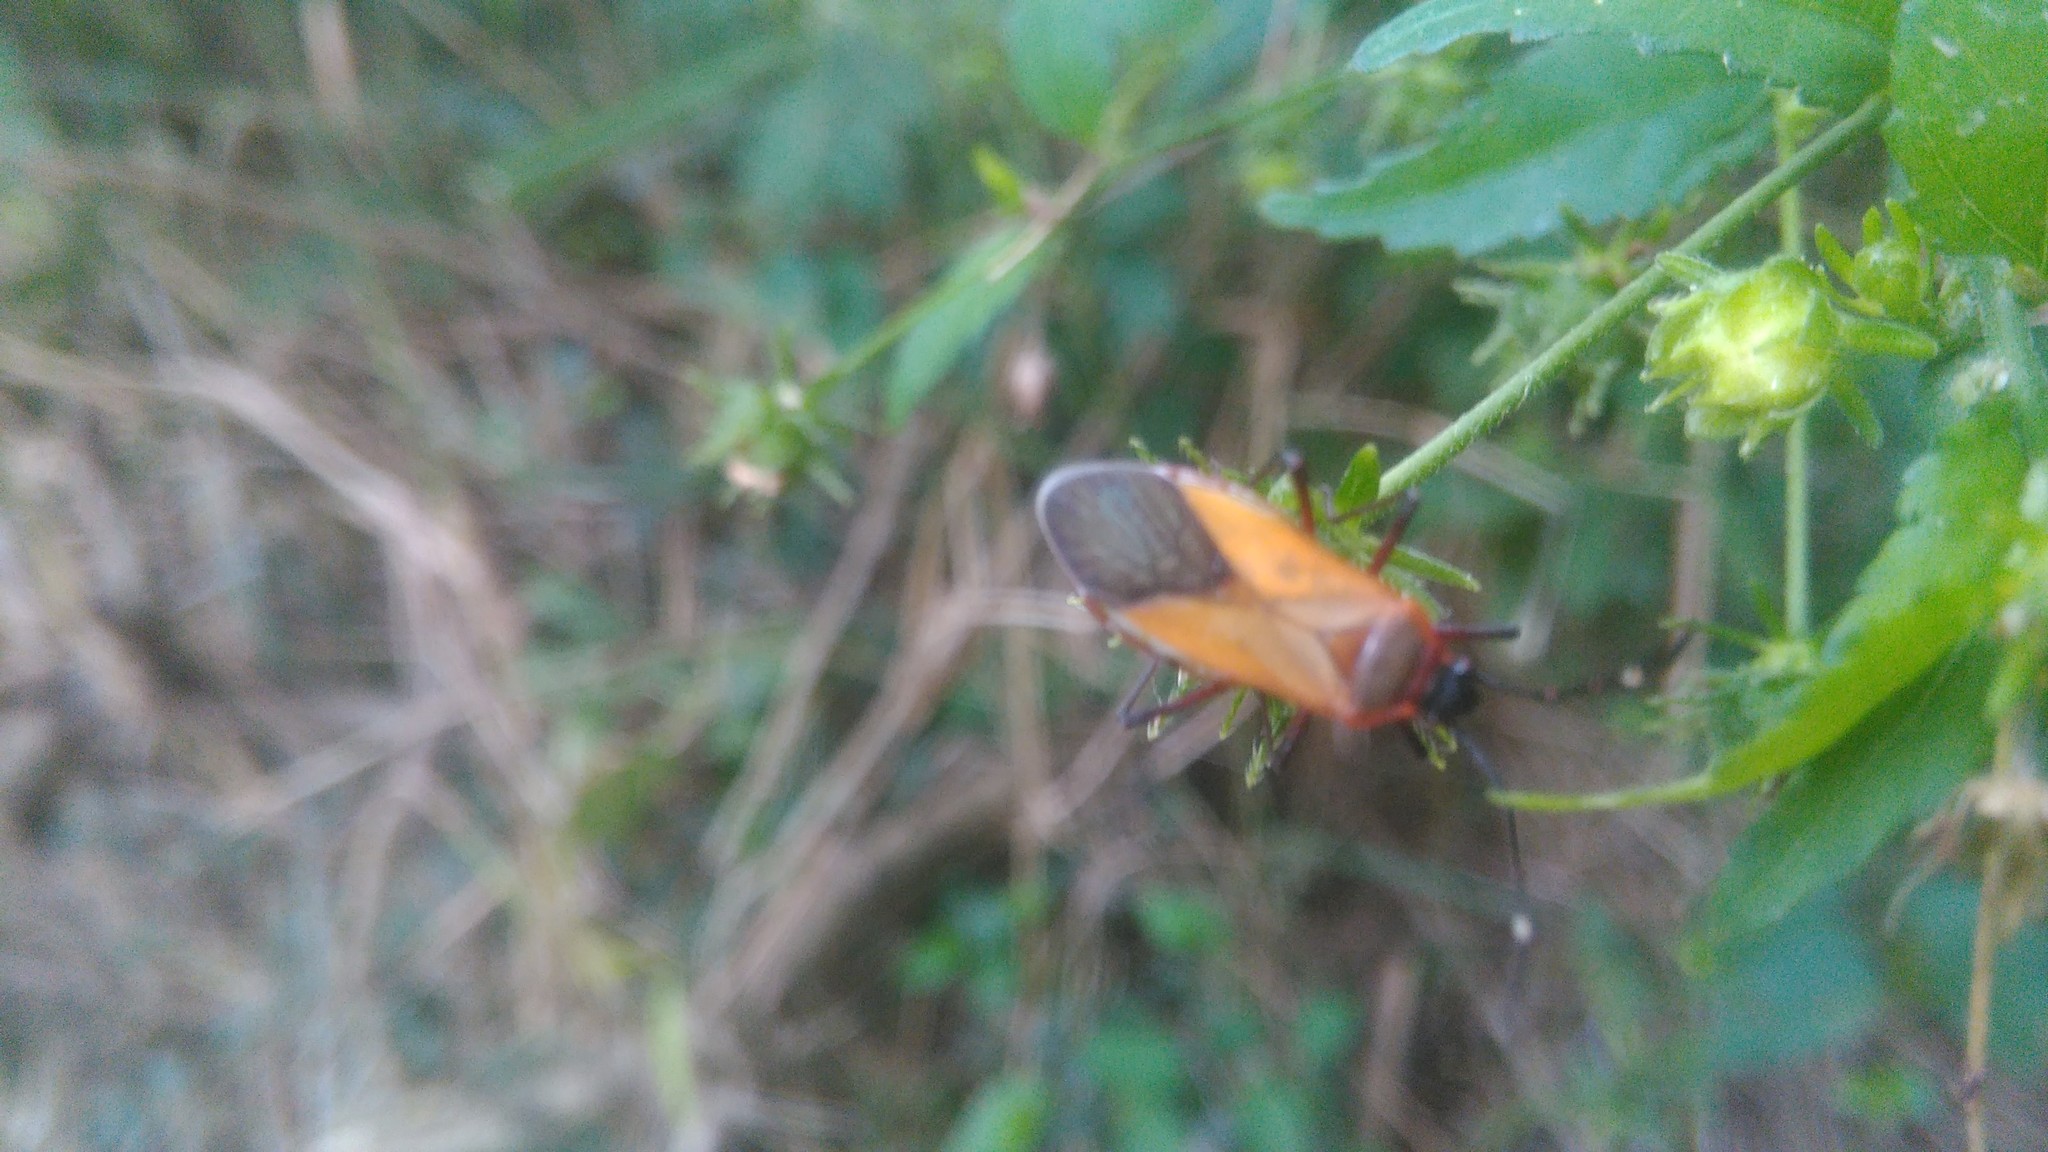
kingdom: Animalia
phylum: Arthropoda
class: Insecta
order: Hemiptera
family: Pyrrhocoridae
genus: Dysdercus
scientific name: Dysdercus
